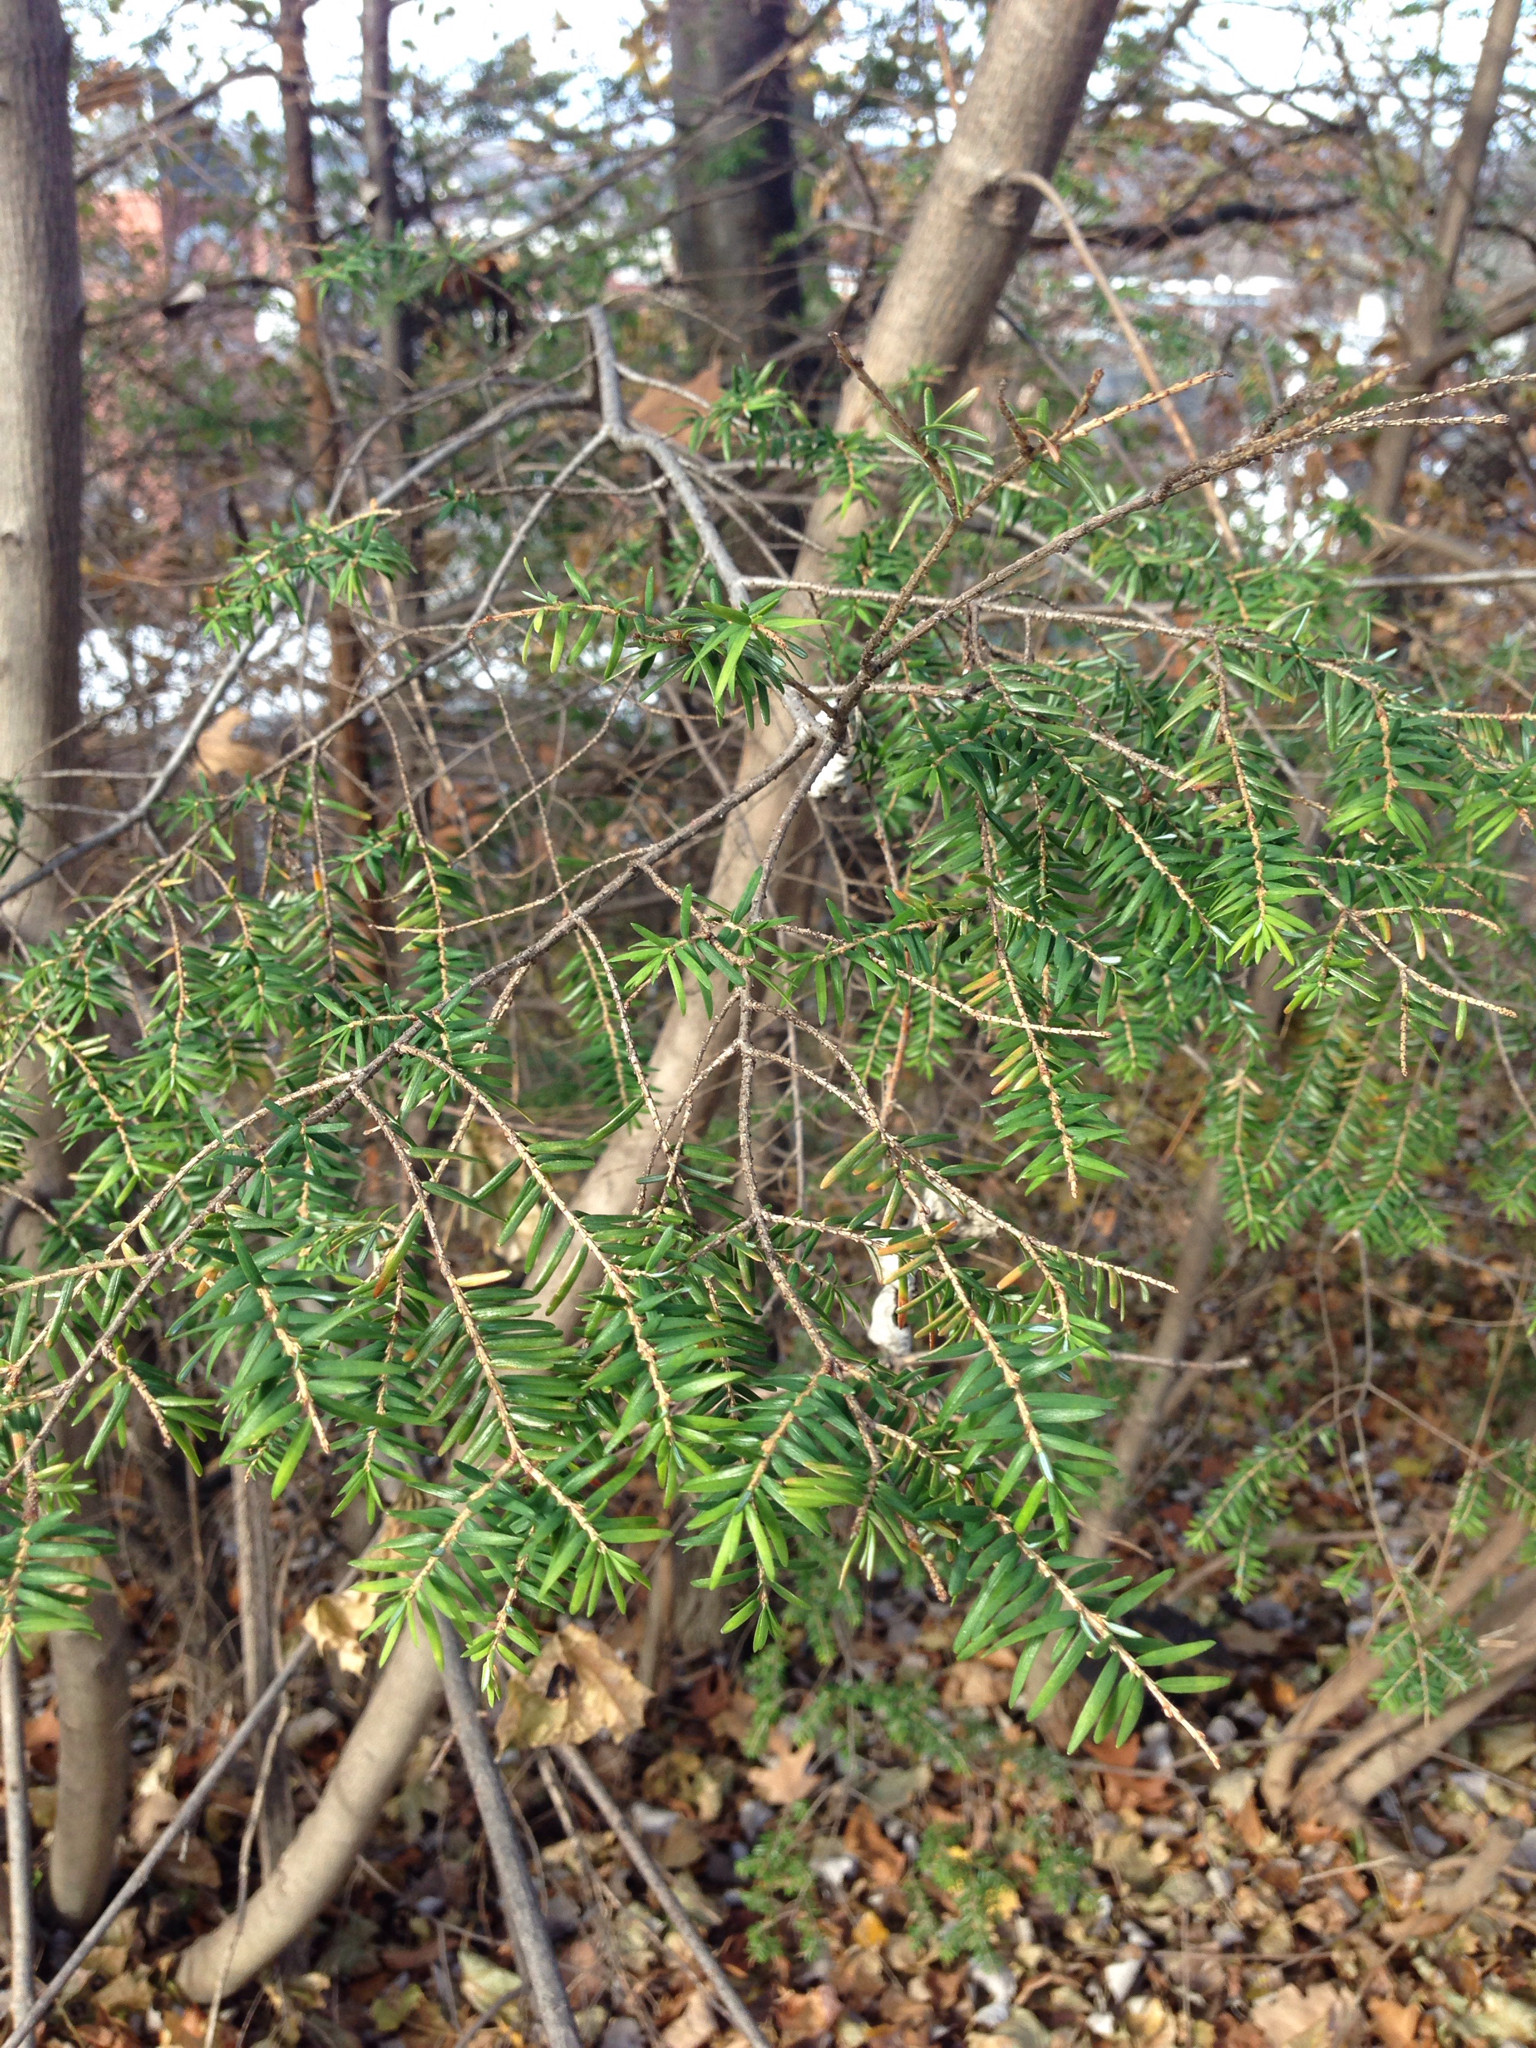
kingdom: Plantae
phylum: Tracheophyta
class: Pinopsida
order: Pinales
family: Pinaceae
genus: Tsuga
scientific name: Tsuga canadensis
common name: Eastern hemlock
